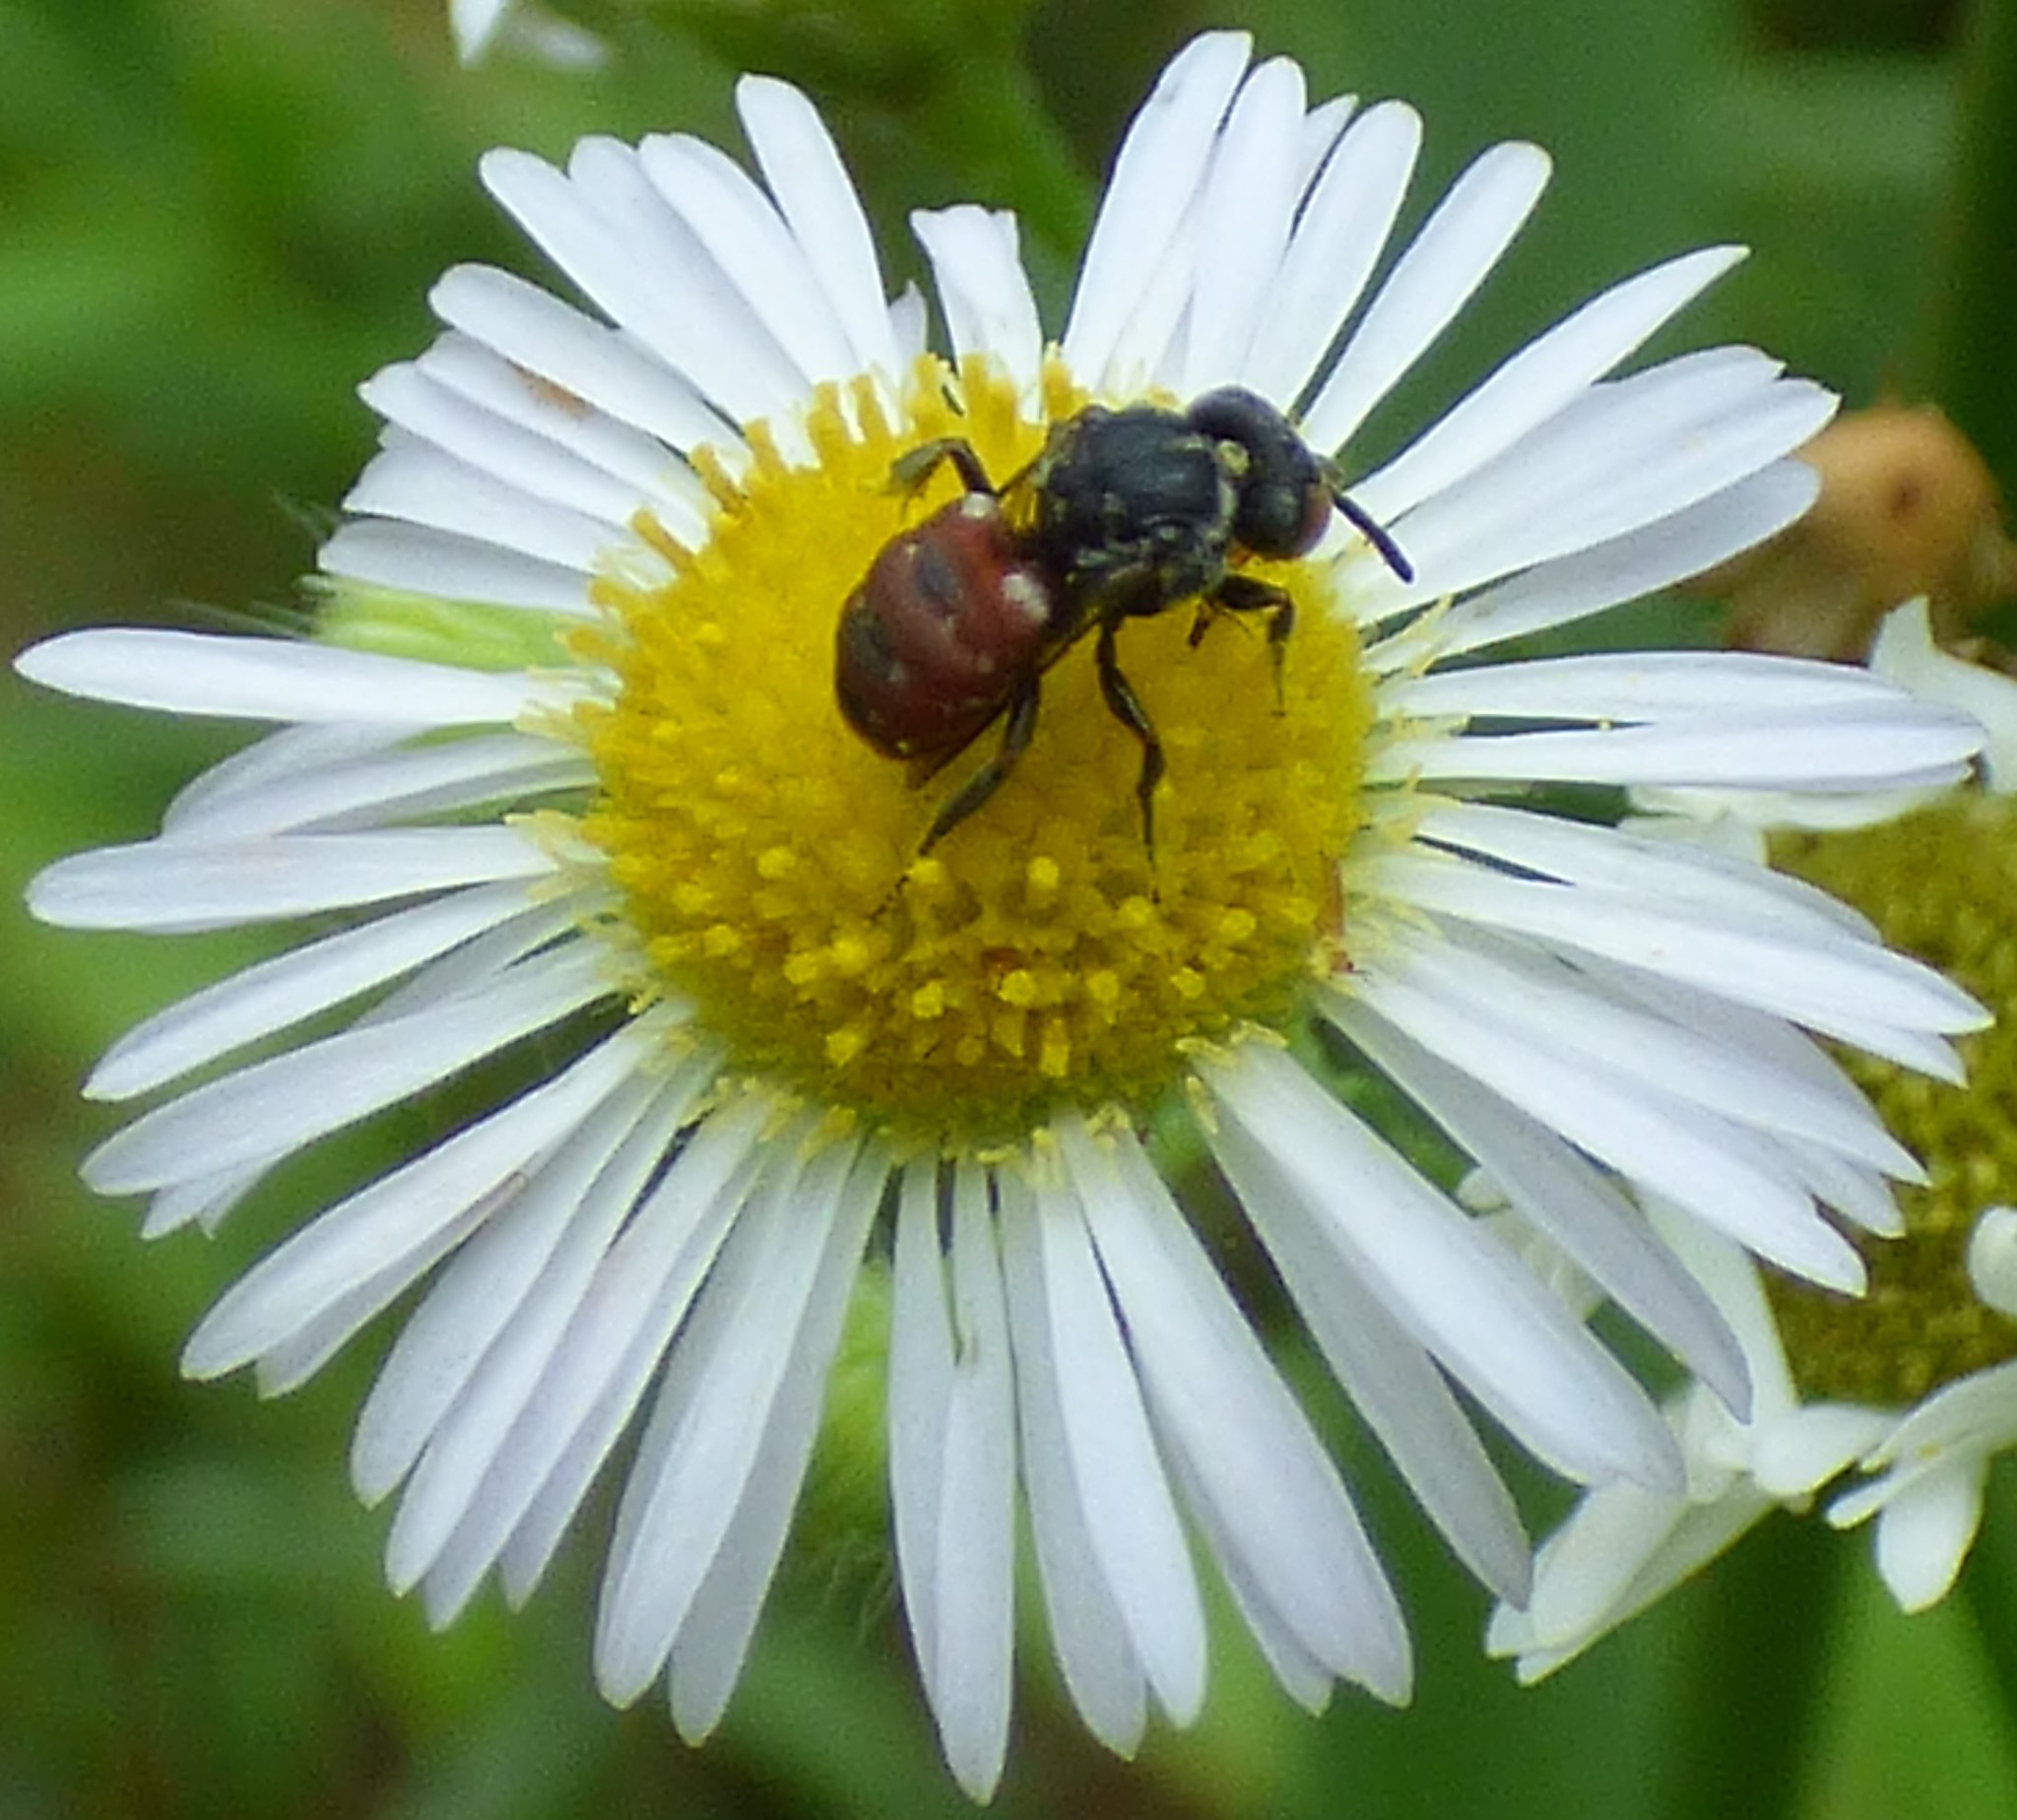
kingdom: Animalia
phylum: Arthropoda
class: Insecta
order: Hymenoptera
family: Apidae
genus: Holcopasites
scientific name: Holcopasites calliopsidis
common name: Calliopsis cuckoo nomad bee
